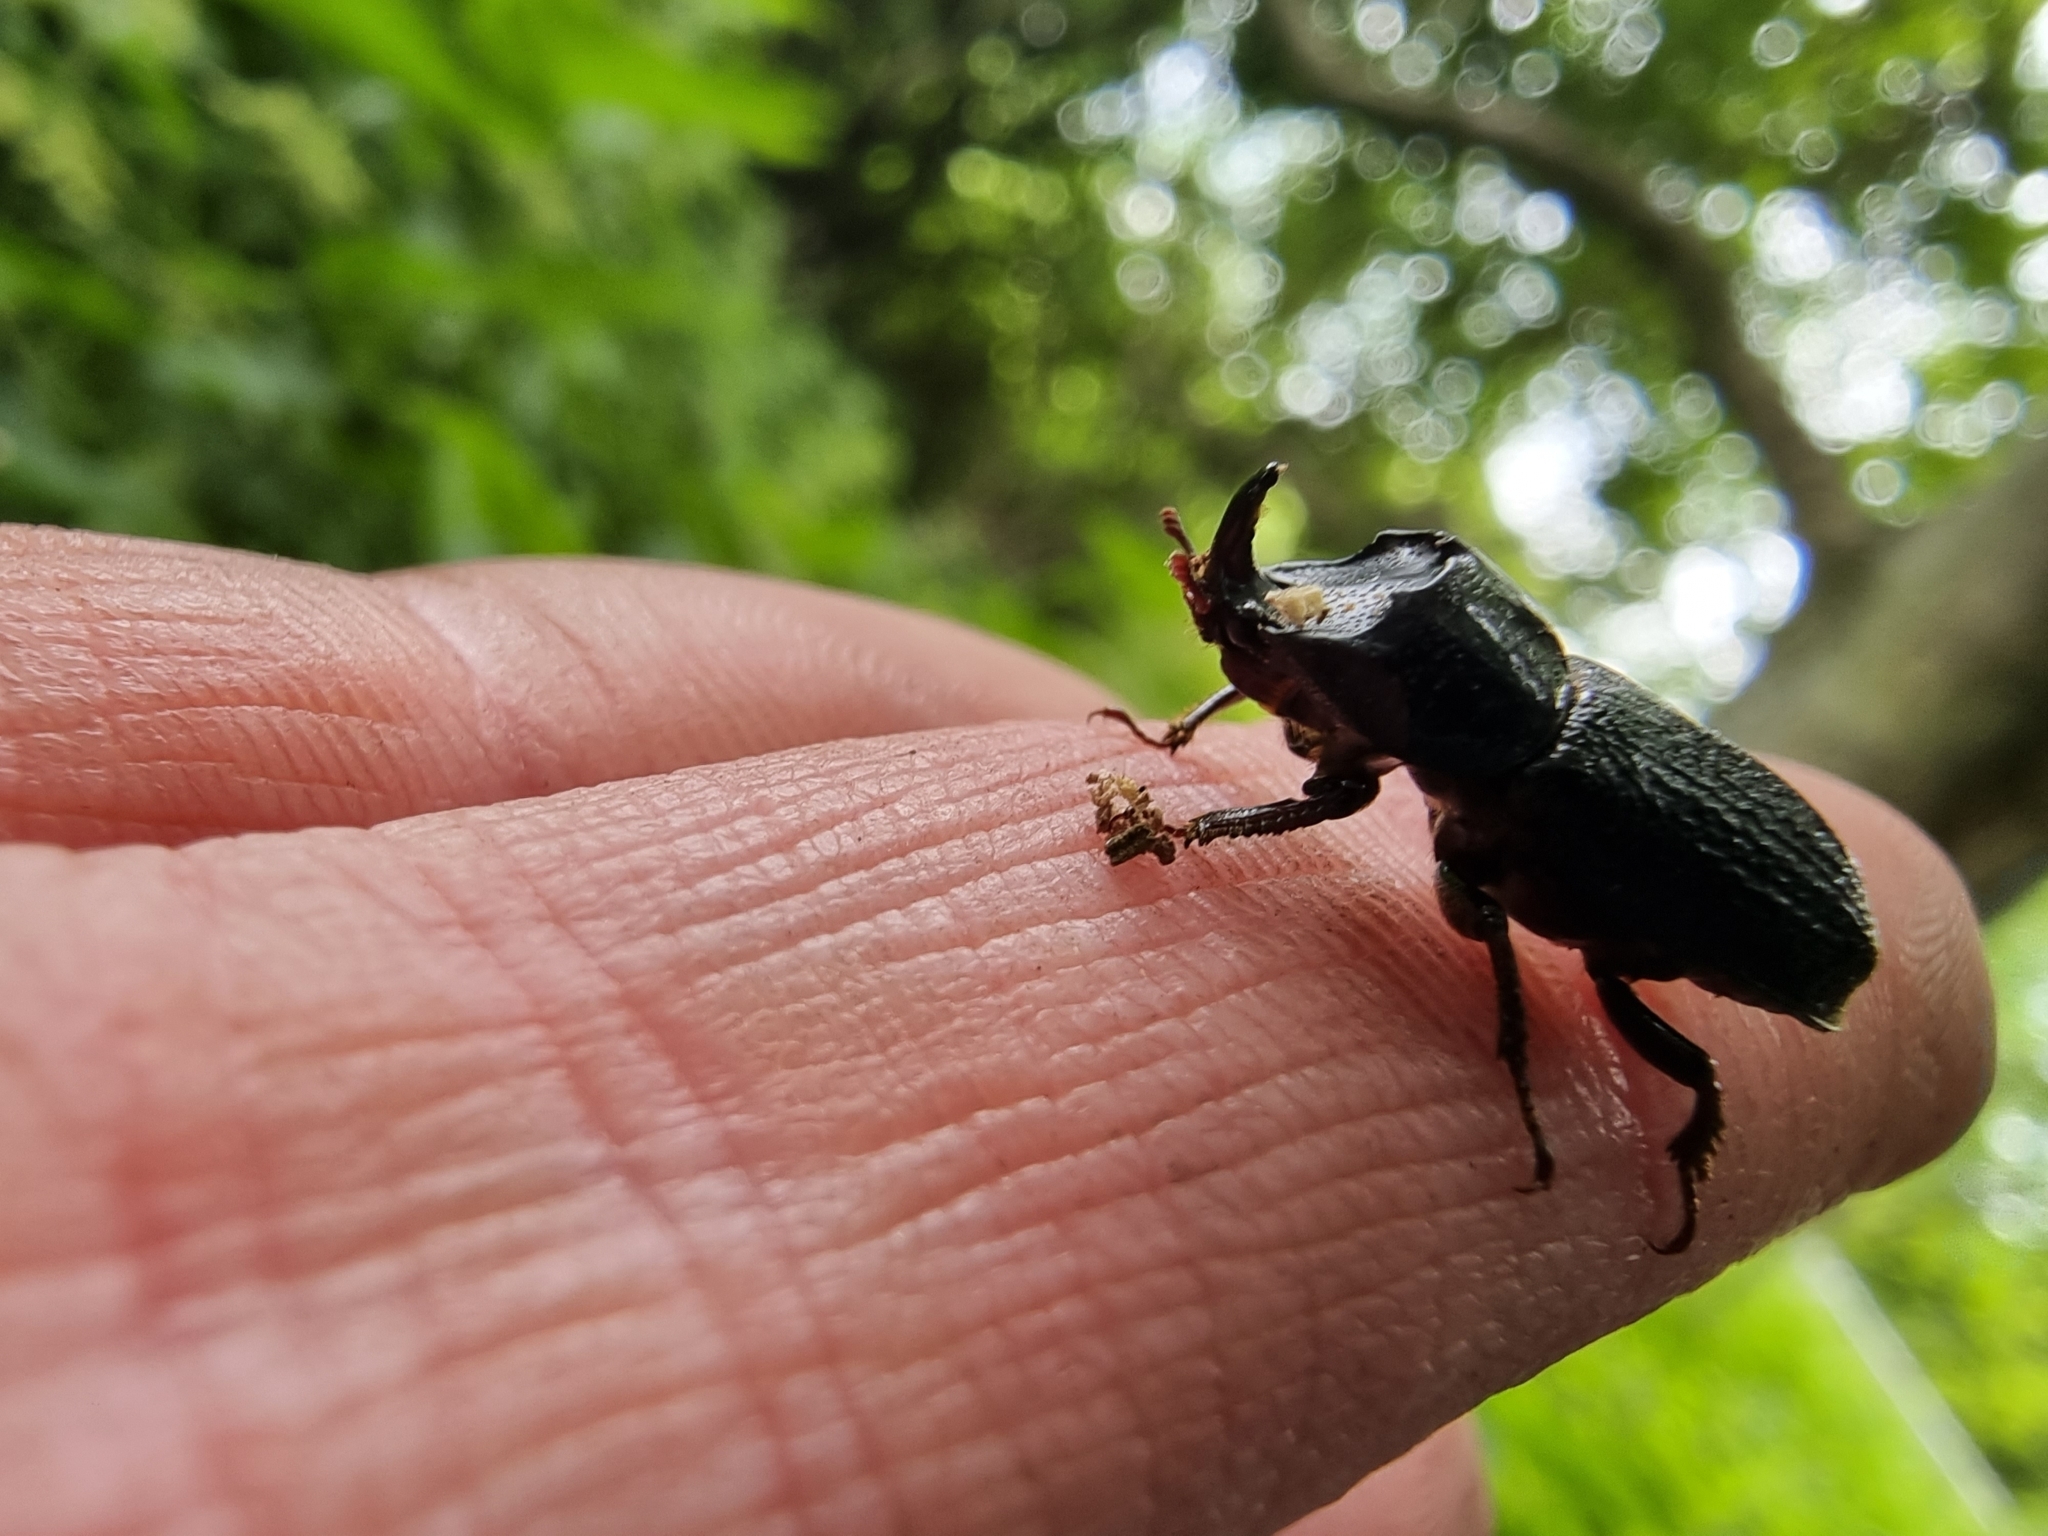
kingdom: Animalia
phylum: Arthropoda
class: Insecta
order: Coleoptera
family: Lucanidae
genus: Sinodendron
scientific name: Sinodendron cylindricum
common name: Rhinoceros beetle
